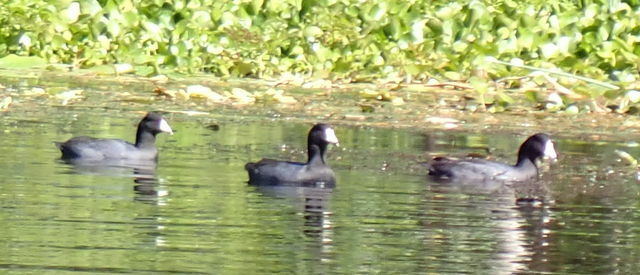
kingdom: Animalia
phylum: Chordata
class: Aves
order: Gruiformes
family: Rallidae
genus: Fulica
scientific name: Fulica americana
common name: American coot
